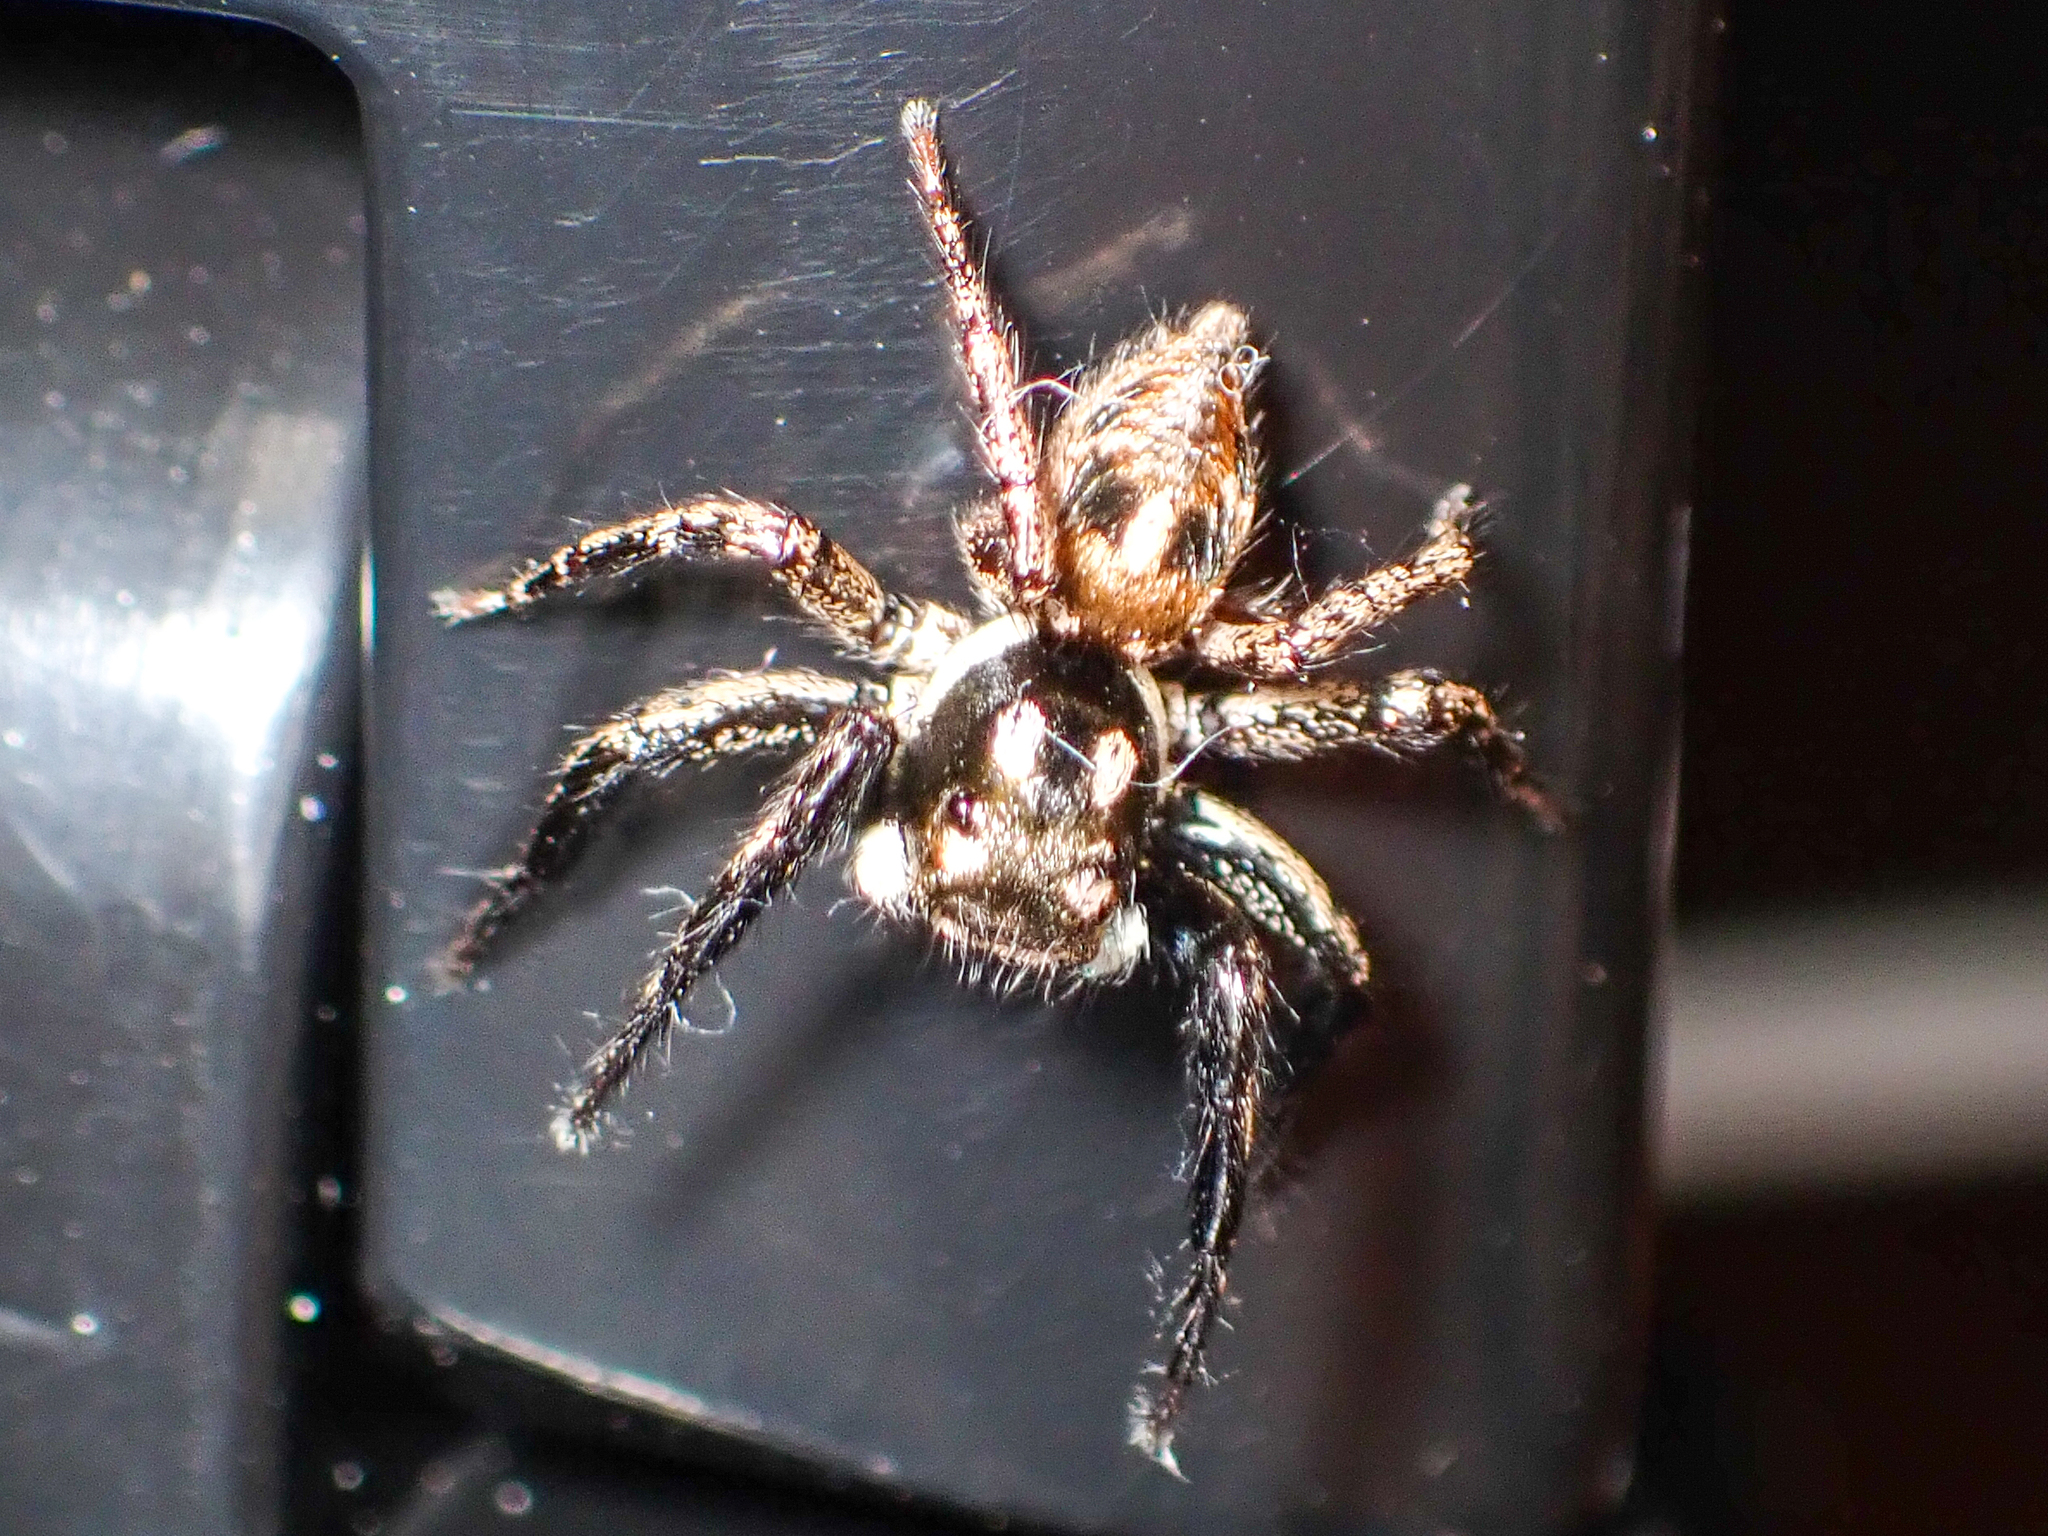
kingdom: Animalia
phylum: Arthropoda
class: Arachnida
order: Araneae
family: Salticidae
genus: Anasaitis
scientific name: Anasaitis canosa
